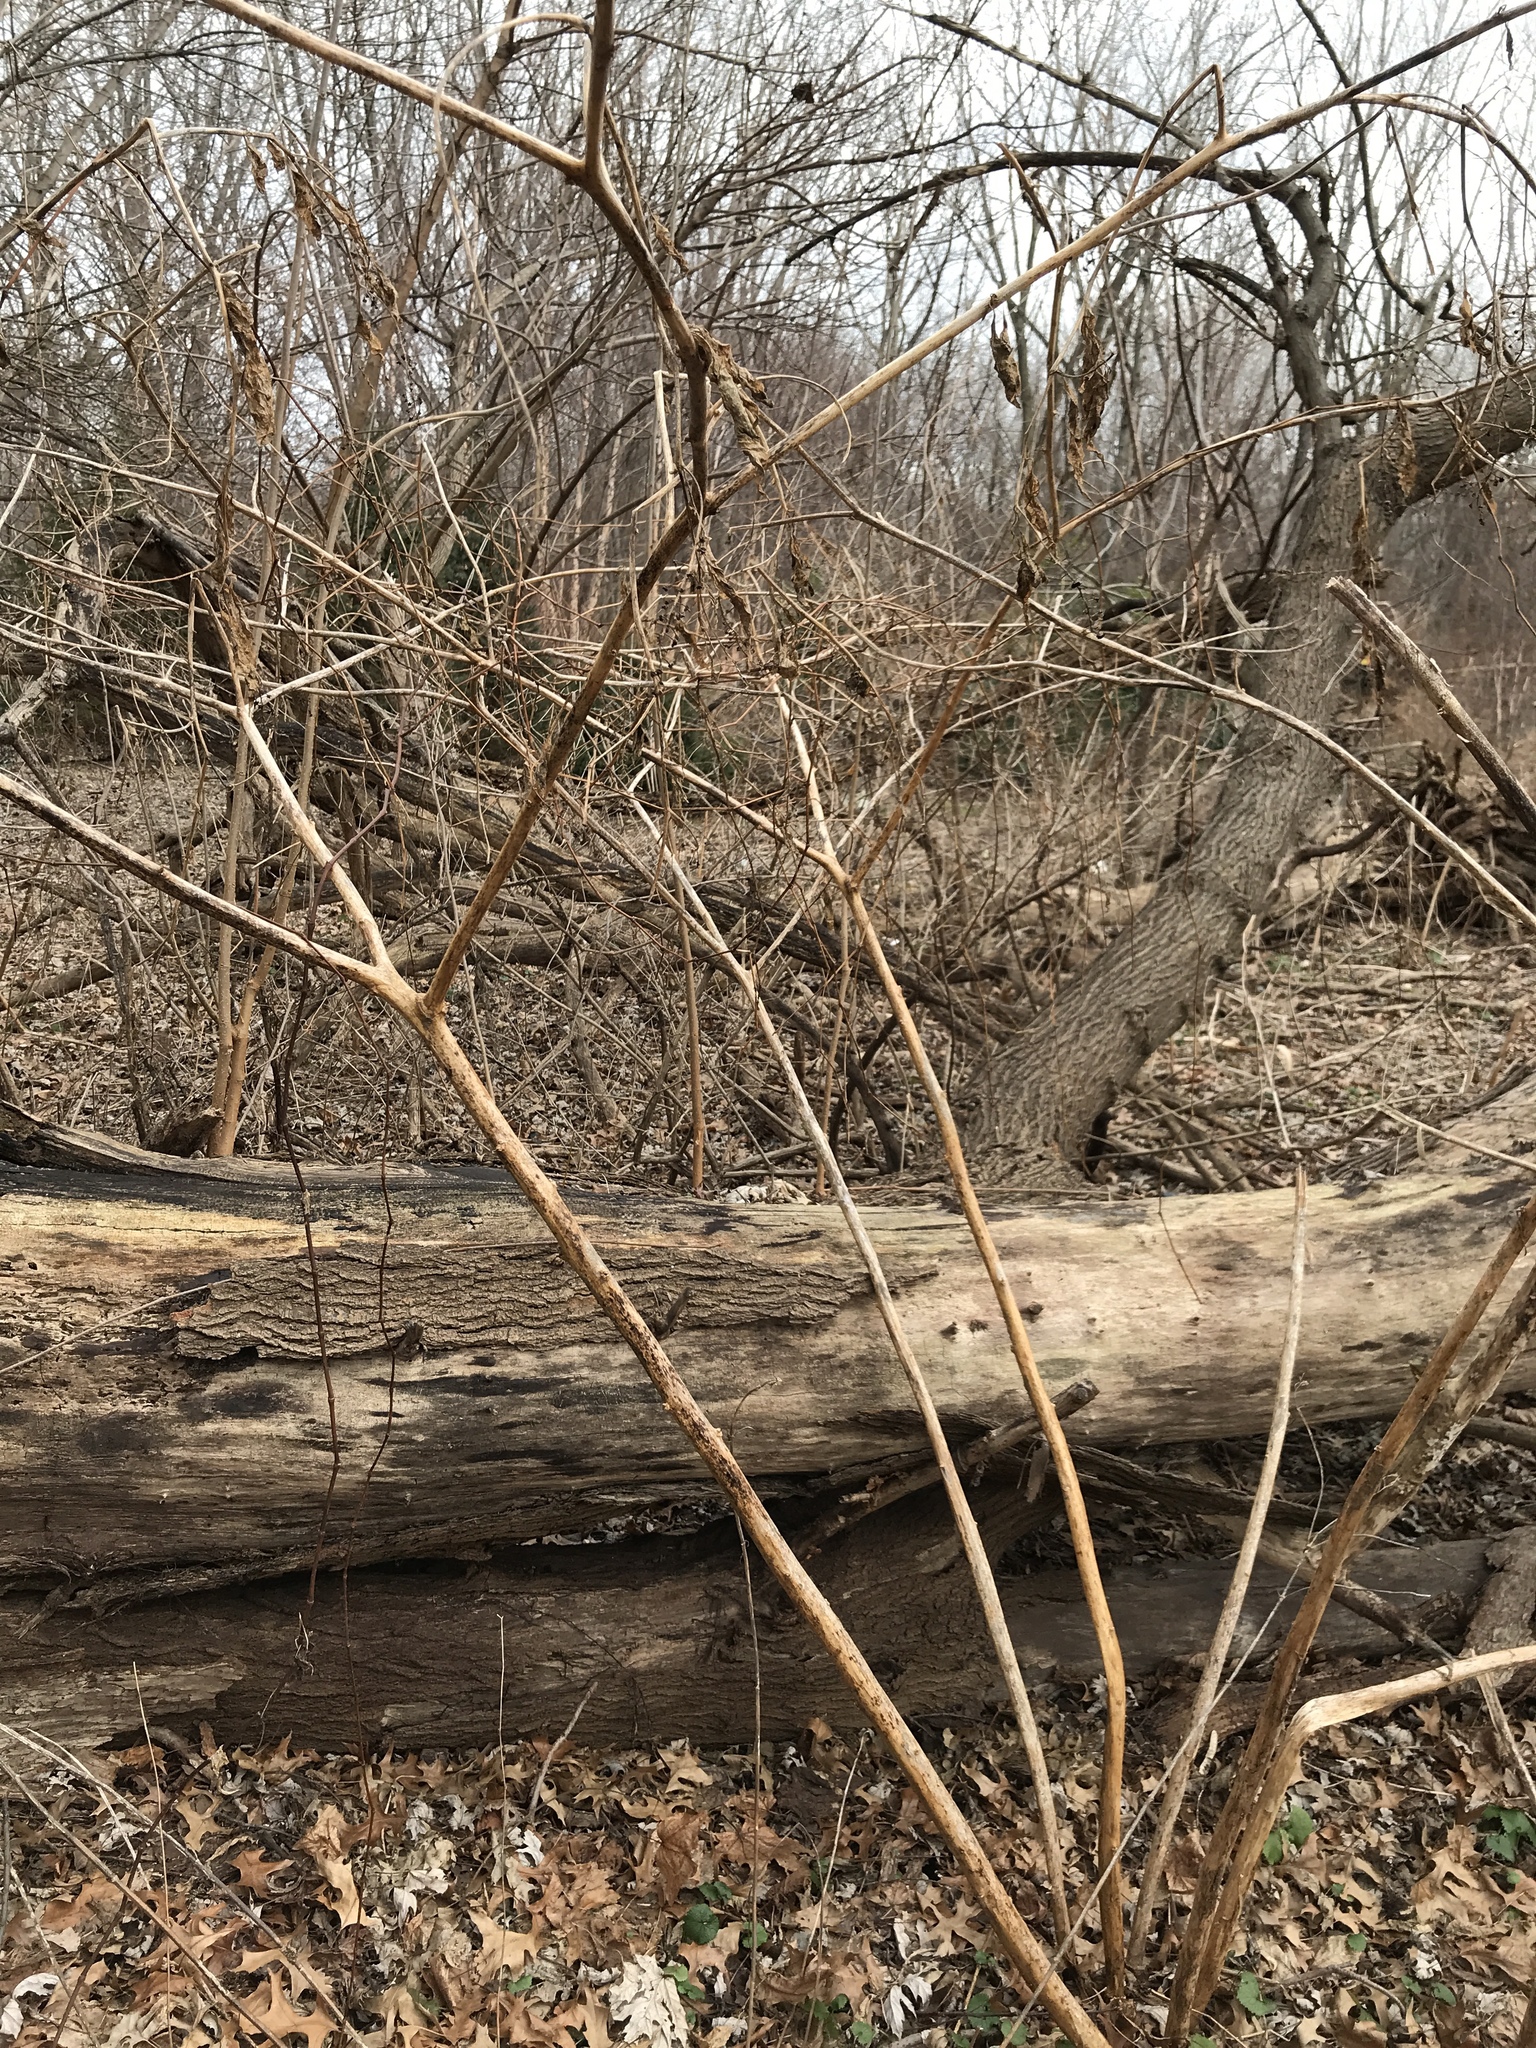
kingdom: Plantae
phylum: Tracheophyta
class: Magnoliopsida
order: Caryophyllales
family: Phytolaccaceae
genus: Phytolacca
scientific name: Phytolacca americana
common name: American pokeweed
